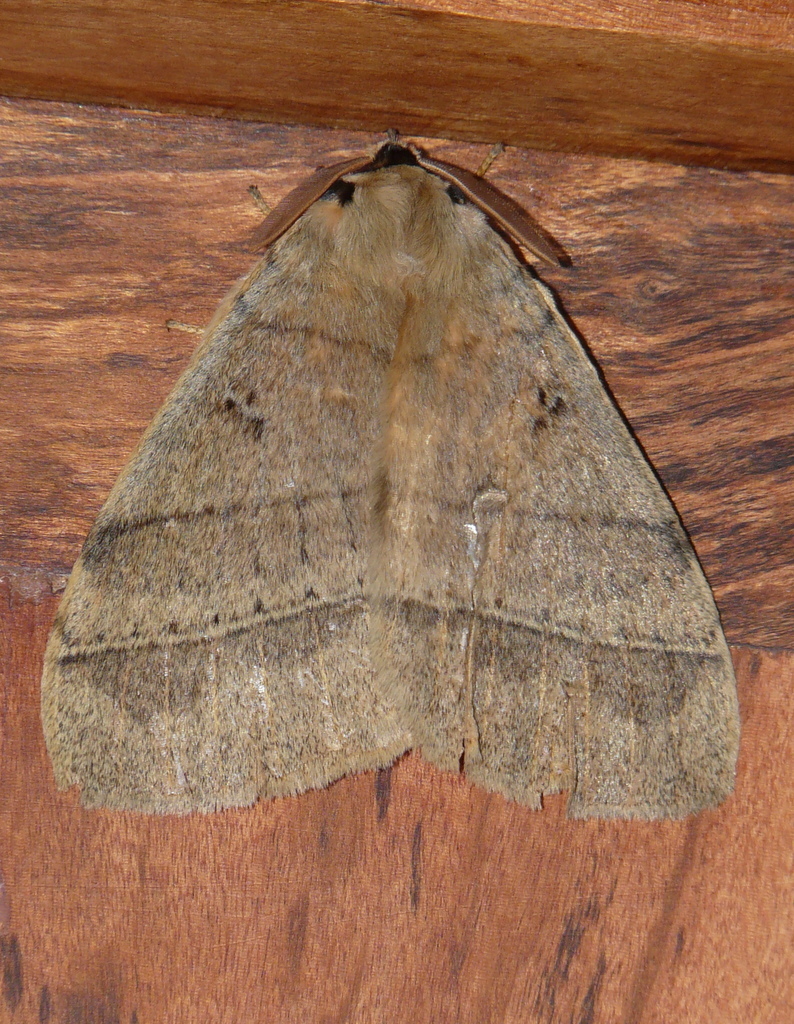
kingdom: Animalia
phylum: Arthropoda
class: Insecta
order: Lepidoptera
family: Eupterotidae
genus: Jana
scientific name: Jana eurymas
